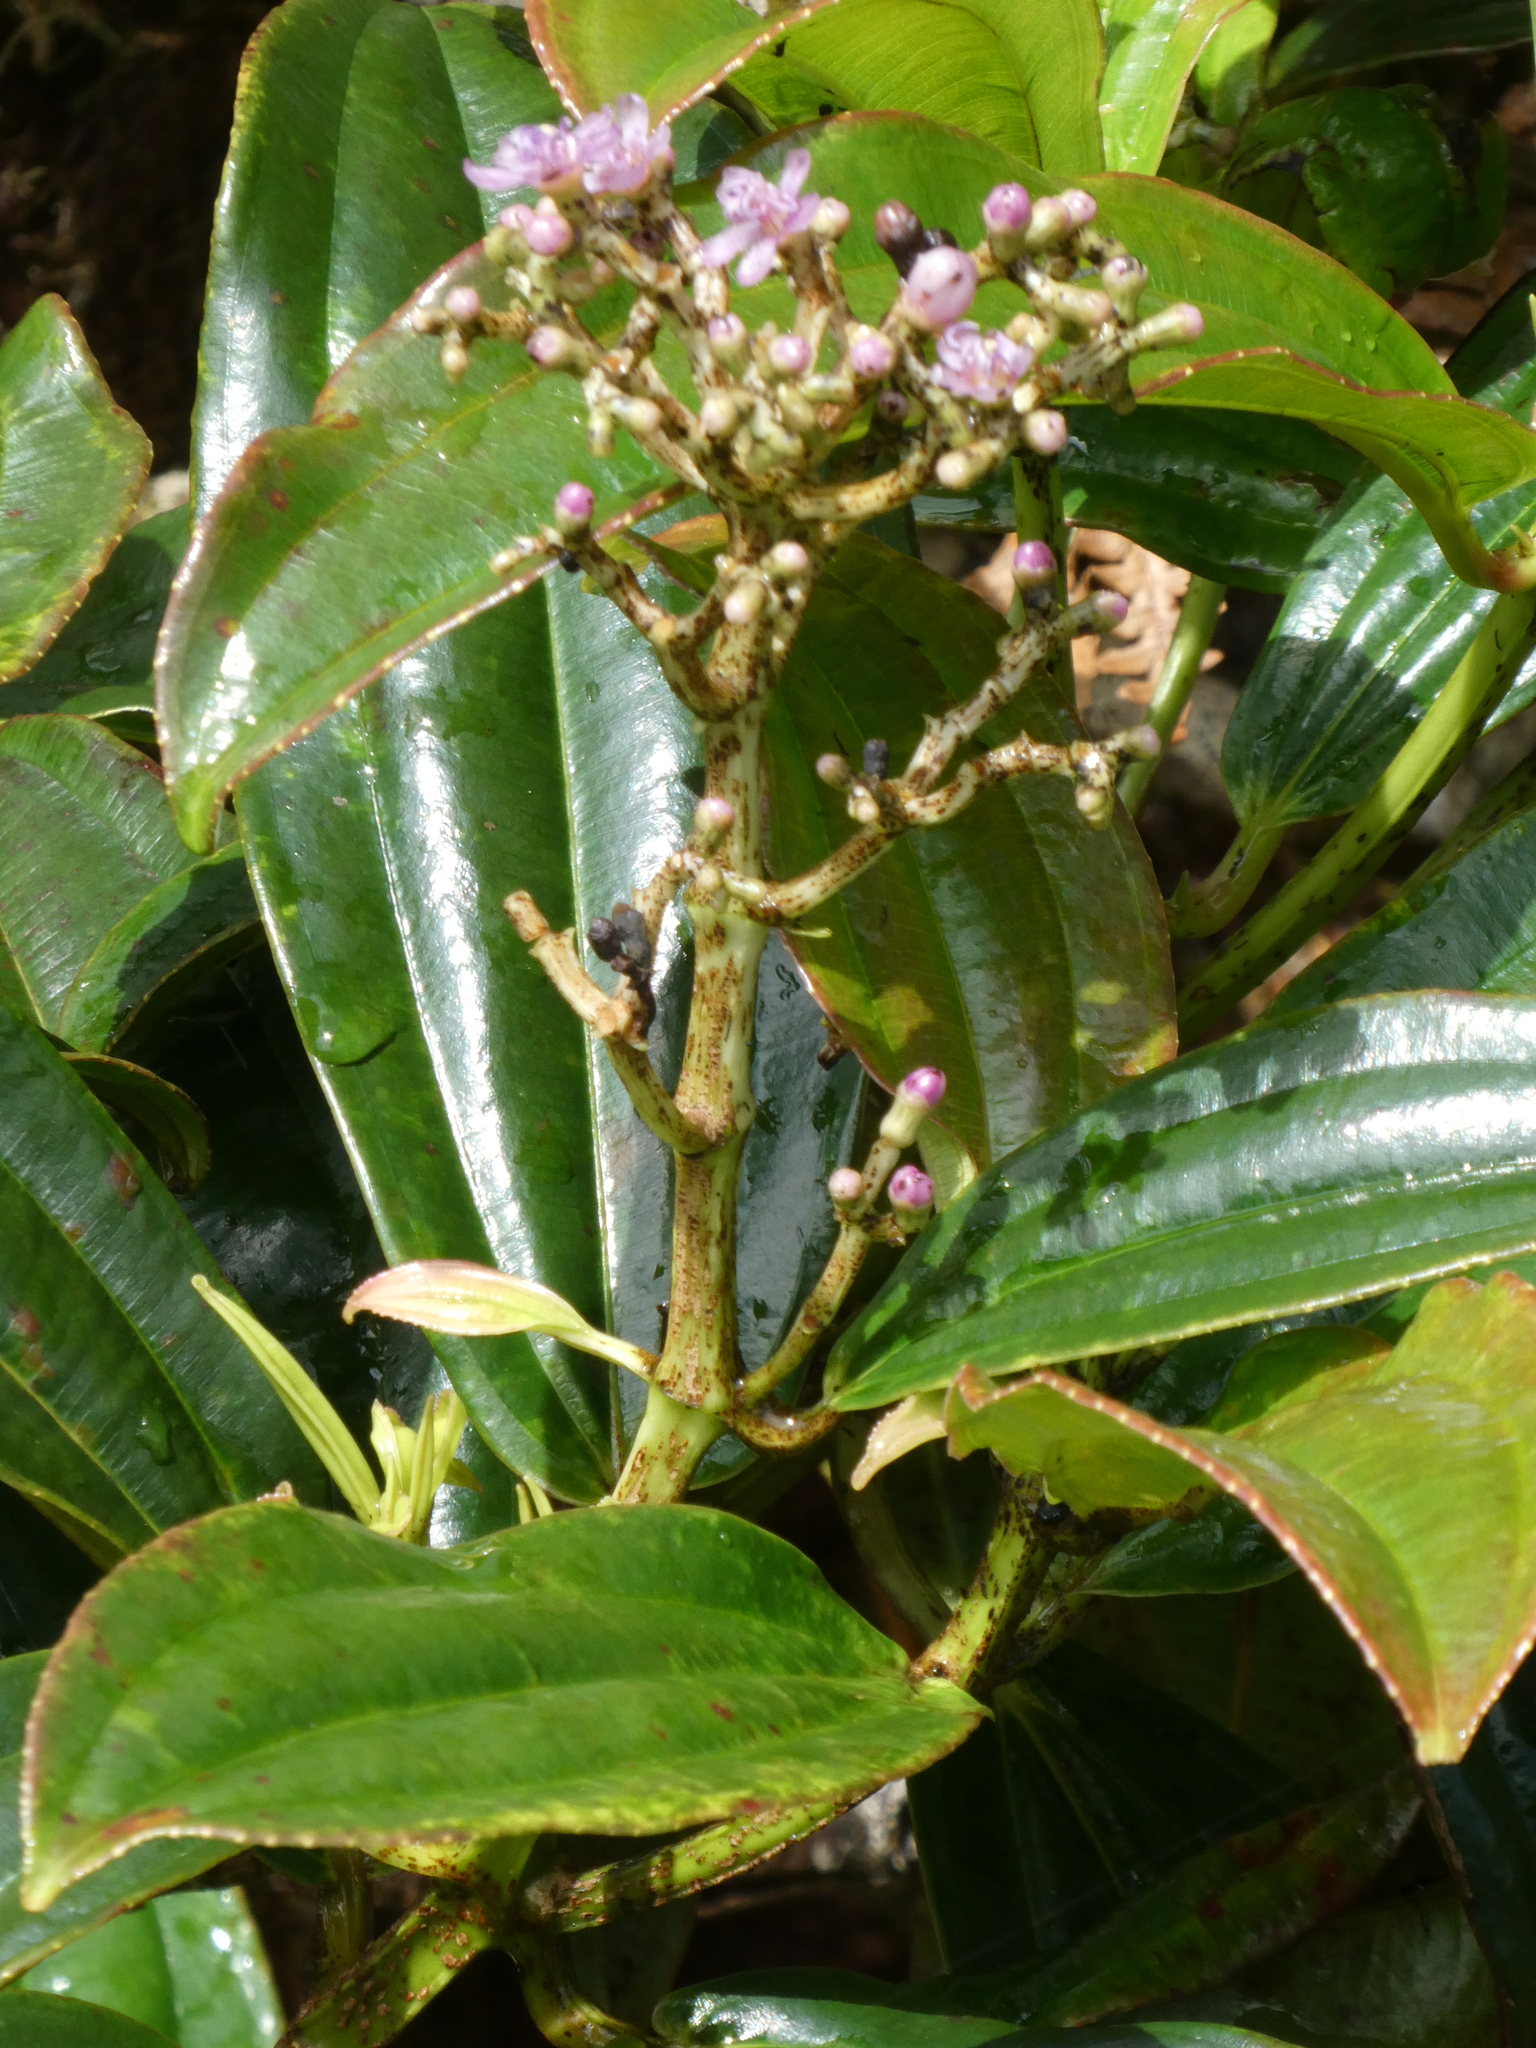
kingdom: Plantae
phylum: Tracheophyta
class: Magnoliopsida
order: Myrtales
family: Melastomataceae
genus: Miconia
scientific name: Miconia robinsoniana
